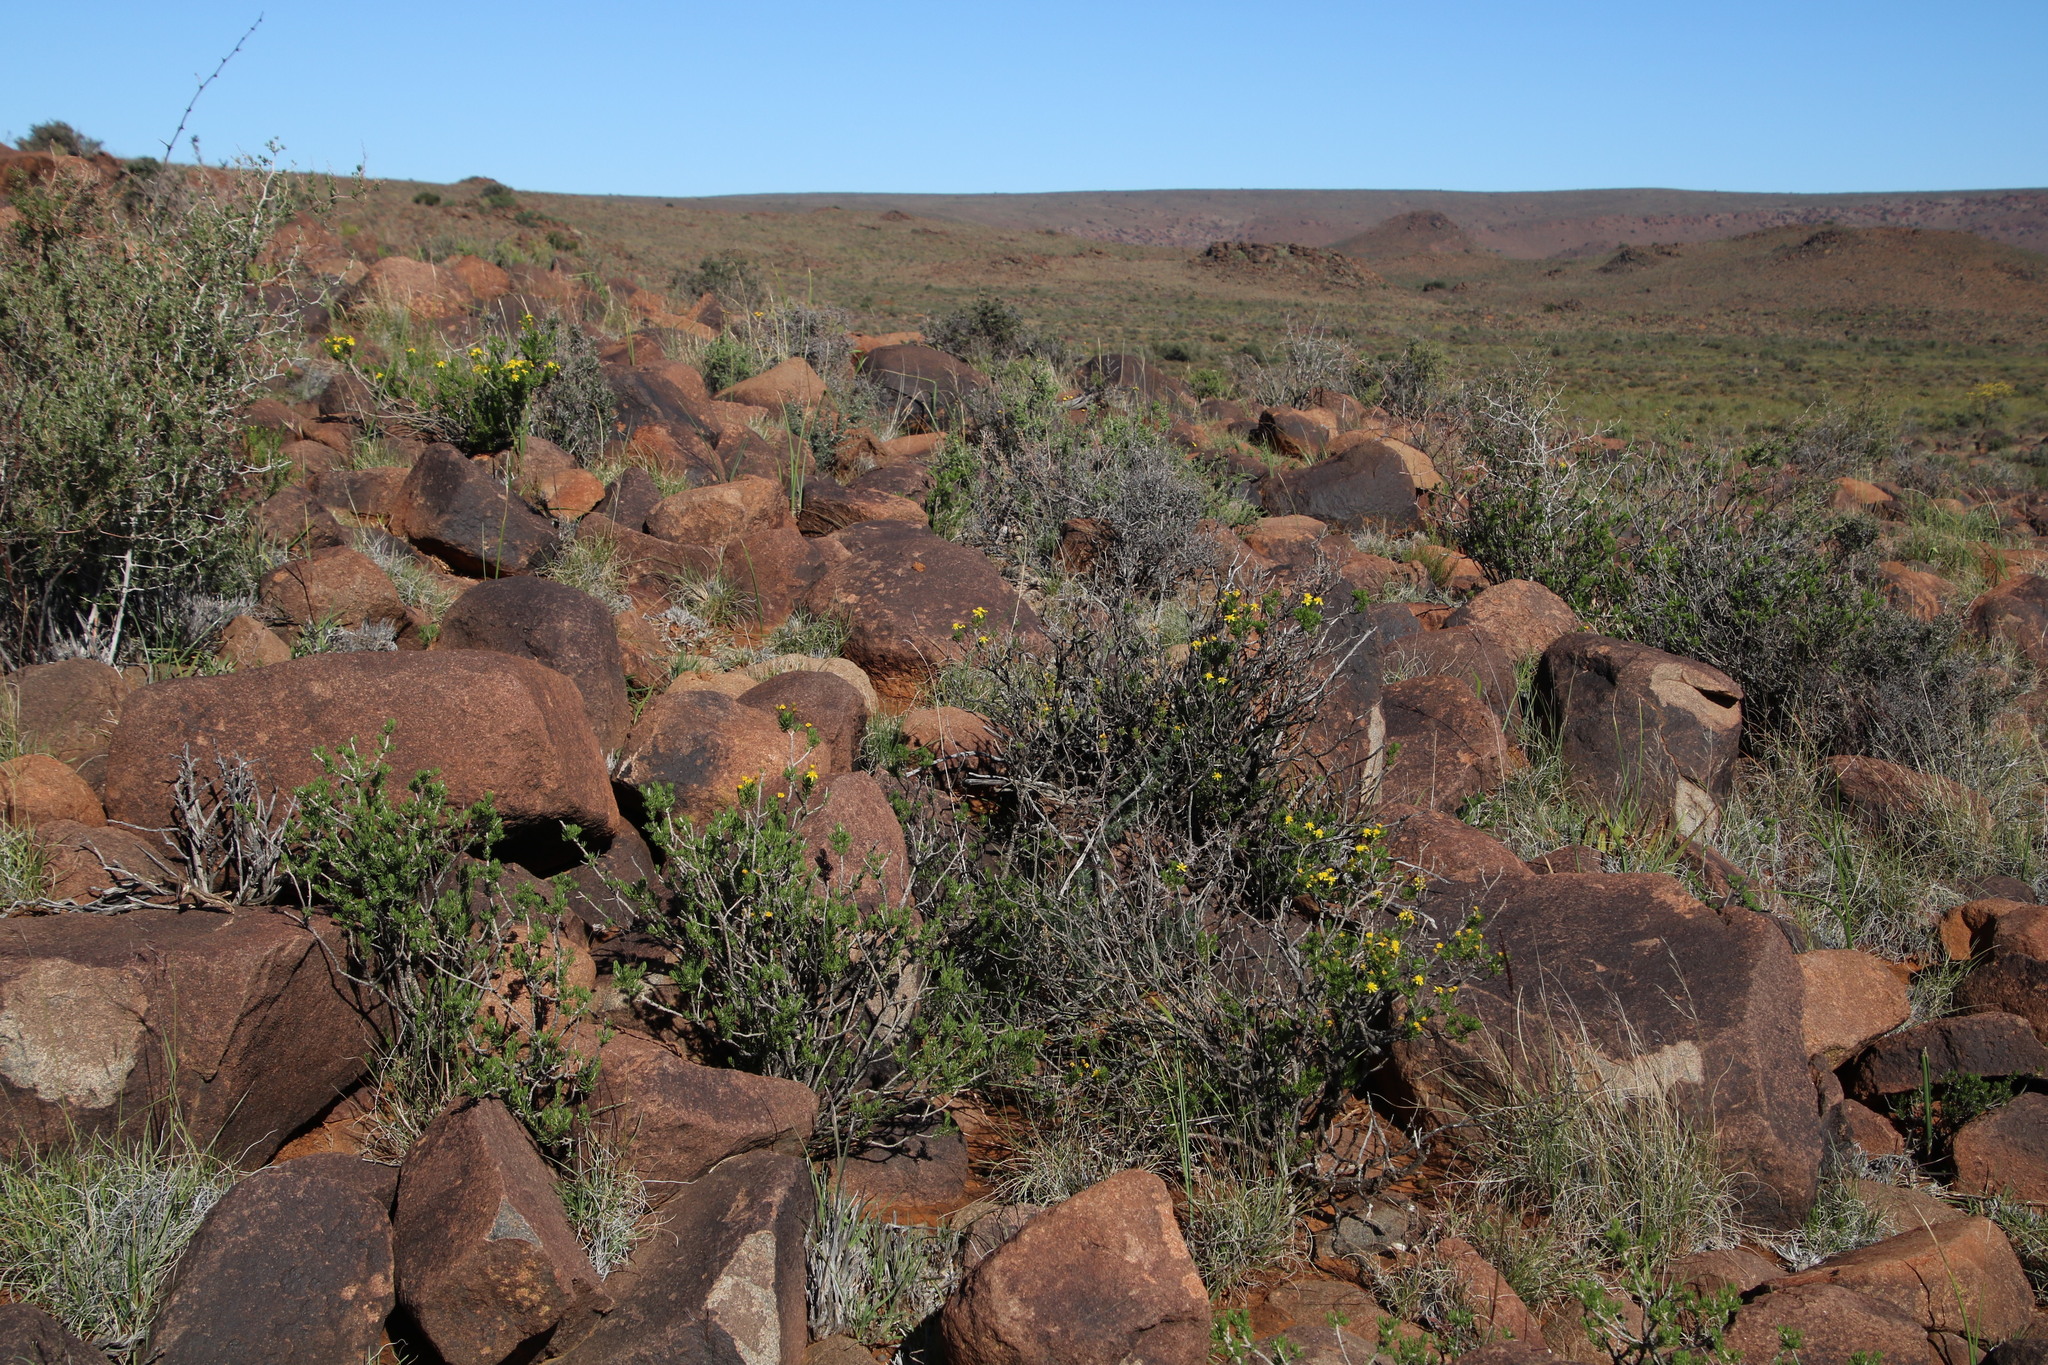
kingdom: Plantae
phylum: Tracheophyta
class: Magnoliopsida
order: Asterales
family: Asteraceae
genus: Euryops
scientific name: Euryops nodosus
